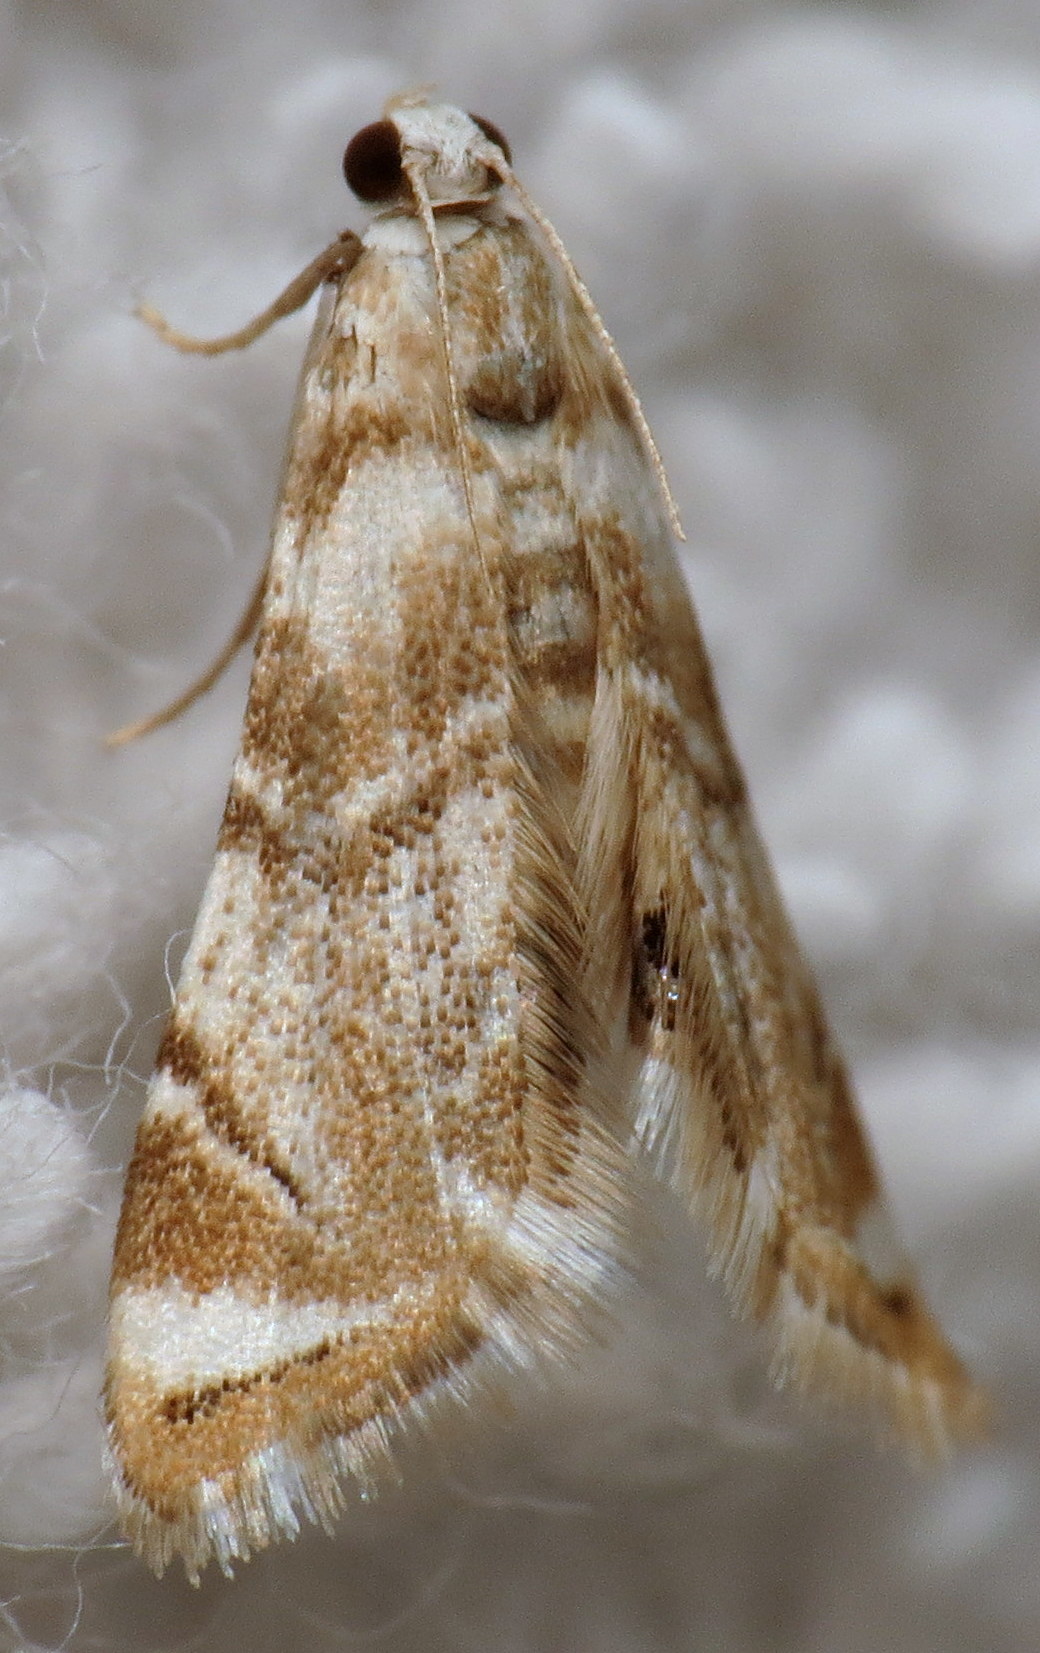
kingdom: Animalia
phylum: Arthropoda
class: Insecta
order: Lepidoptera
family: Crambidae
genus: Eoparargyractis
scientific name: Eoparargyractis plevie
